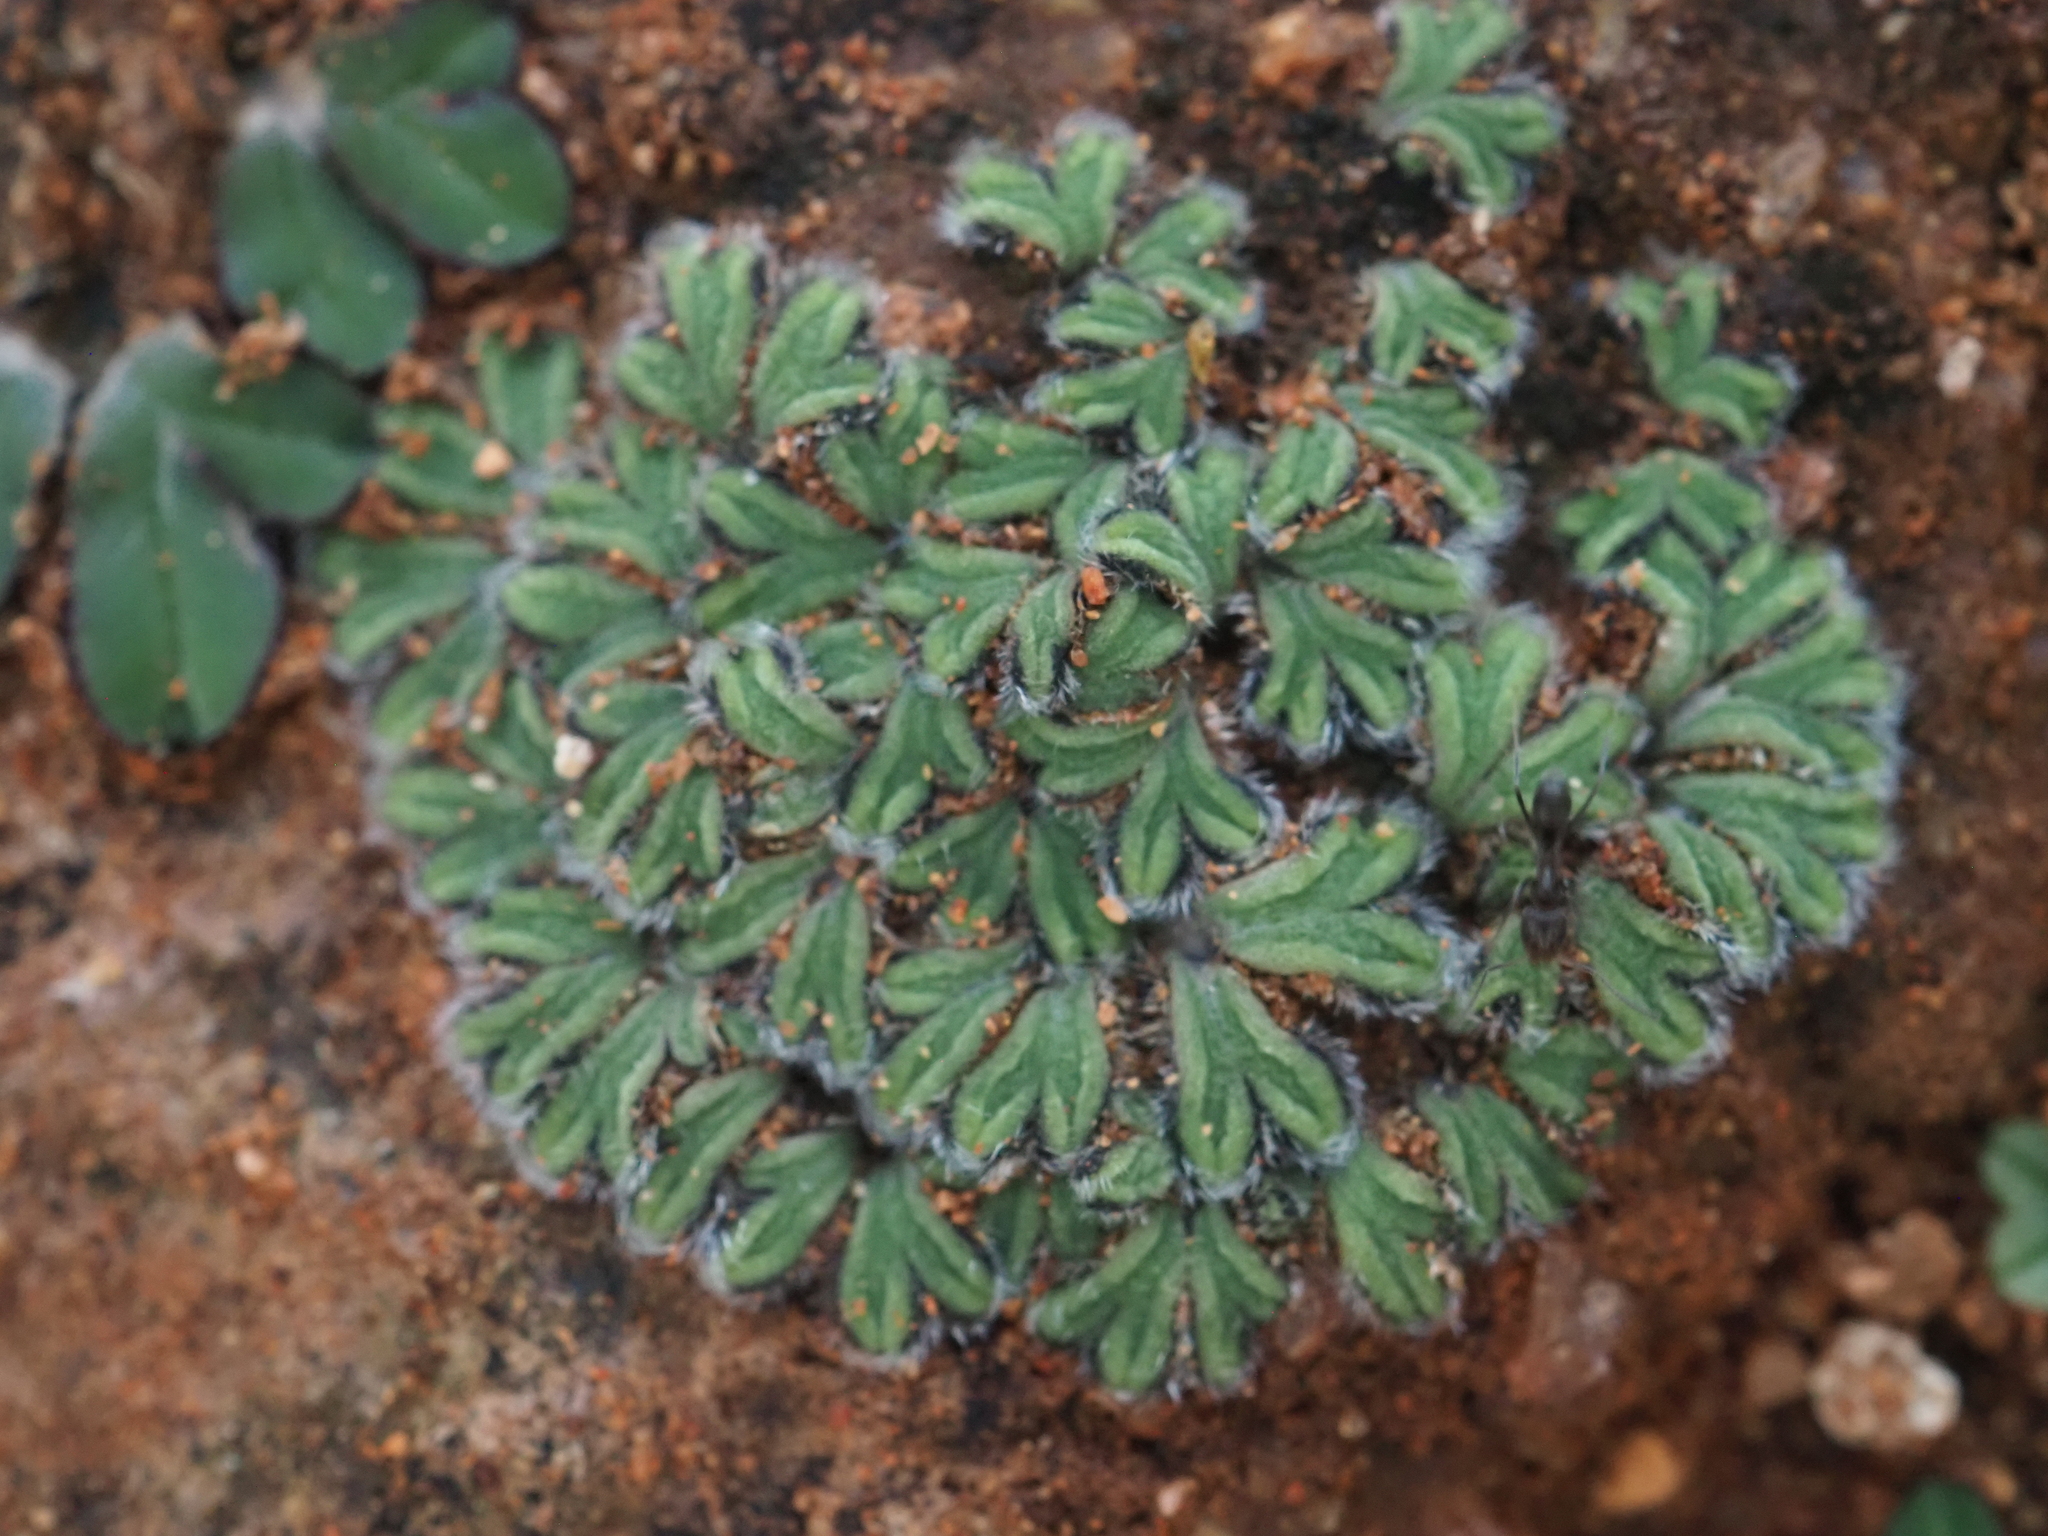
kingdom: Plantae
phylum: Marchantiophyta
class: Marchantiopsida
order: Marchantiales
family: Ricciaceae
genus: Riccia
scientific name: Riccia crinita
